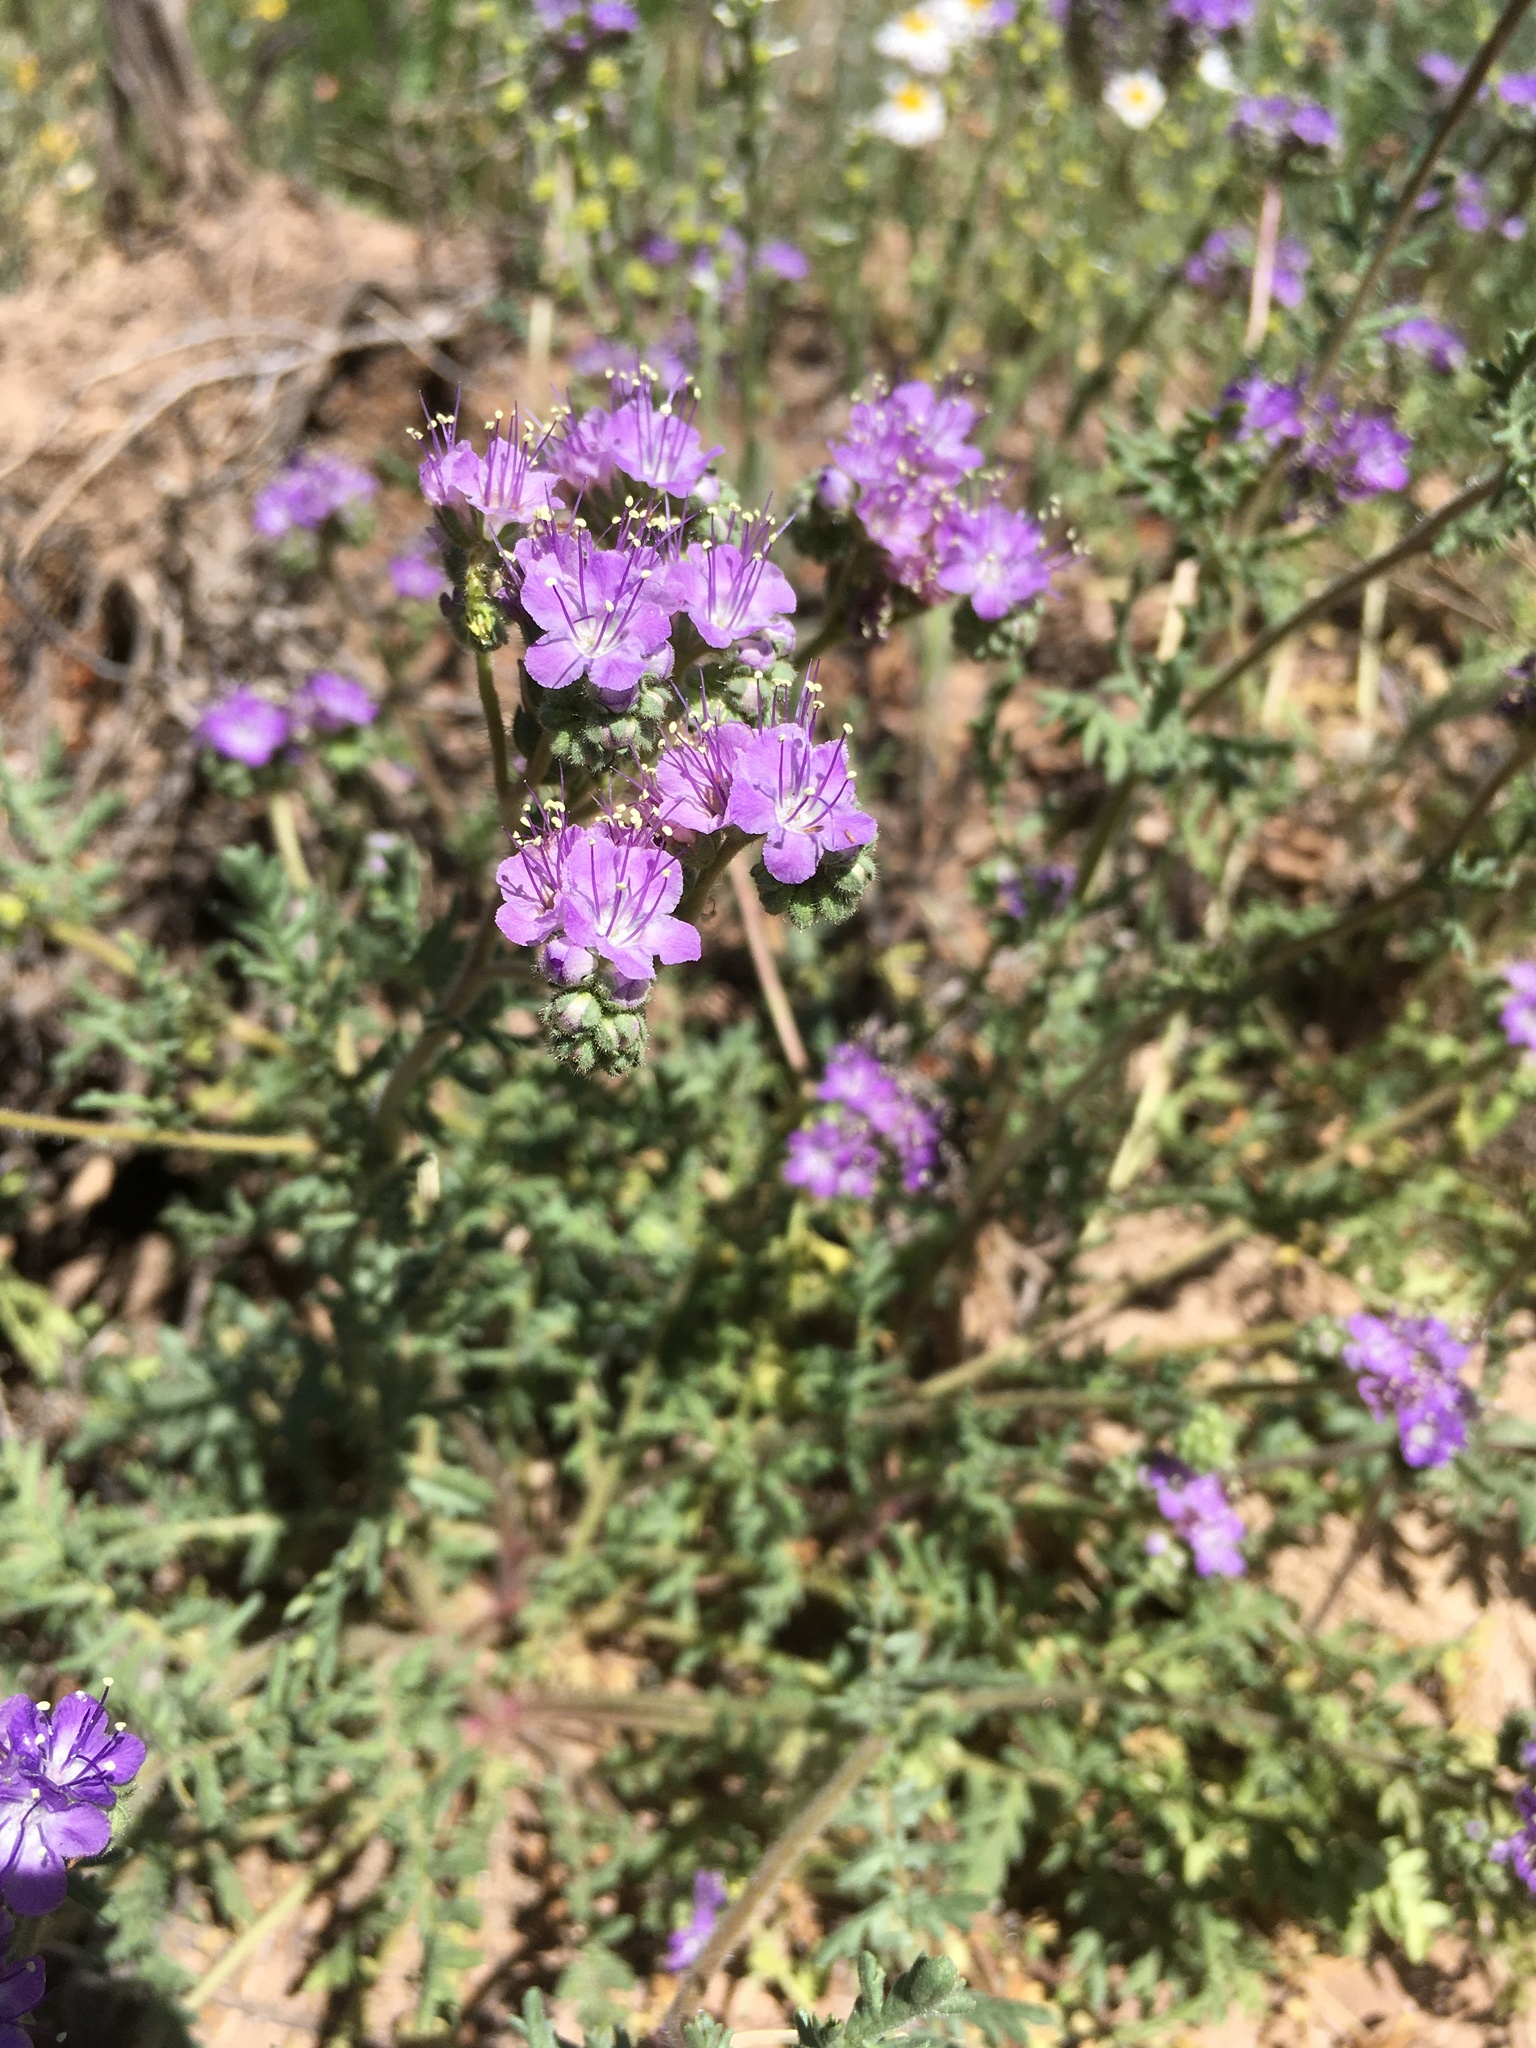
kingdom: Plantae
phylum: Tracheophyta
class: Magnoliopsida
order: Boraginales
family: Hydrophyllaceae
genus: Phacelia
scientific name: Phacelia popei
